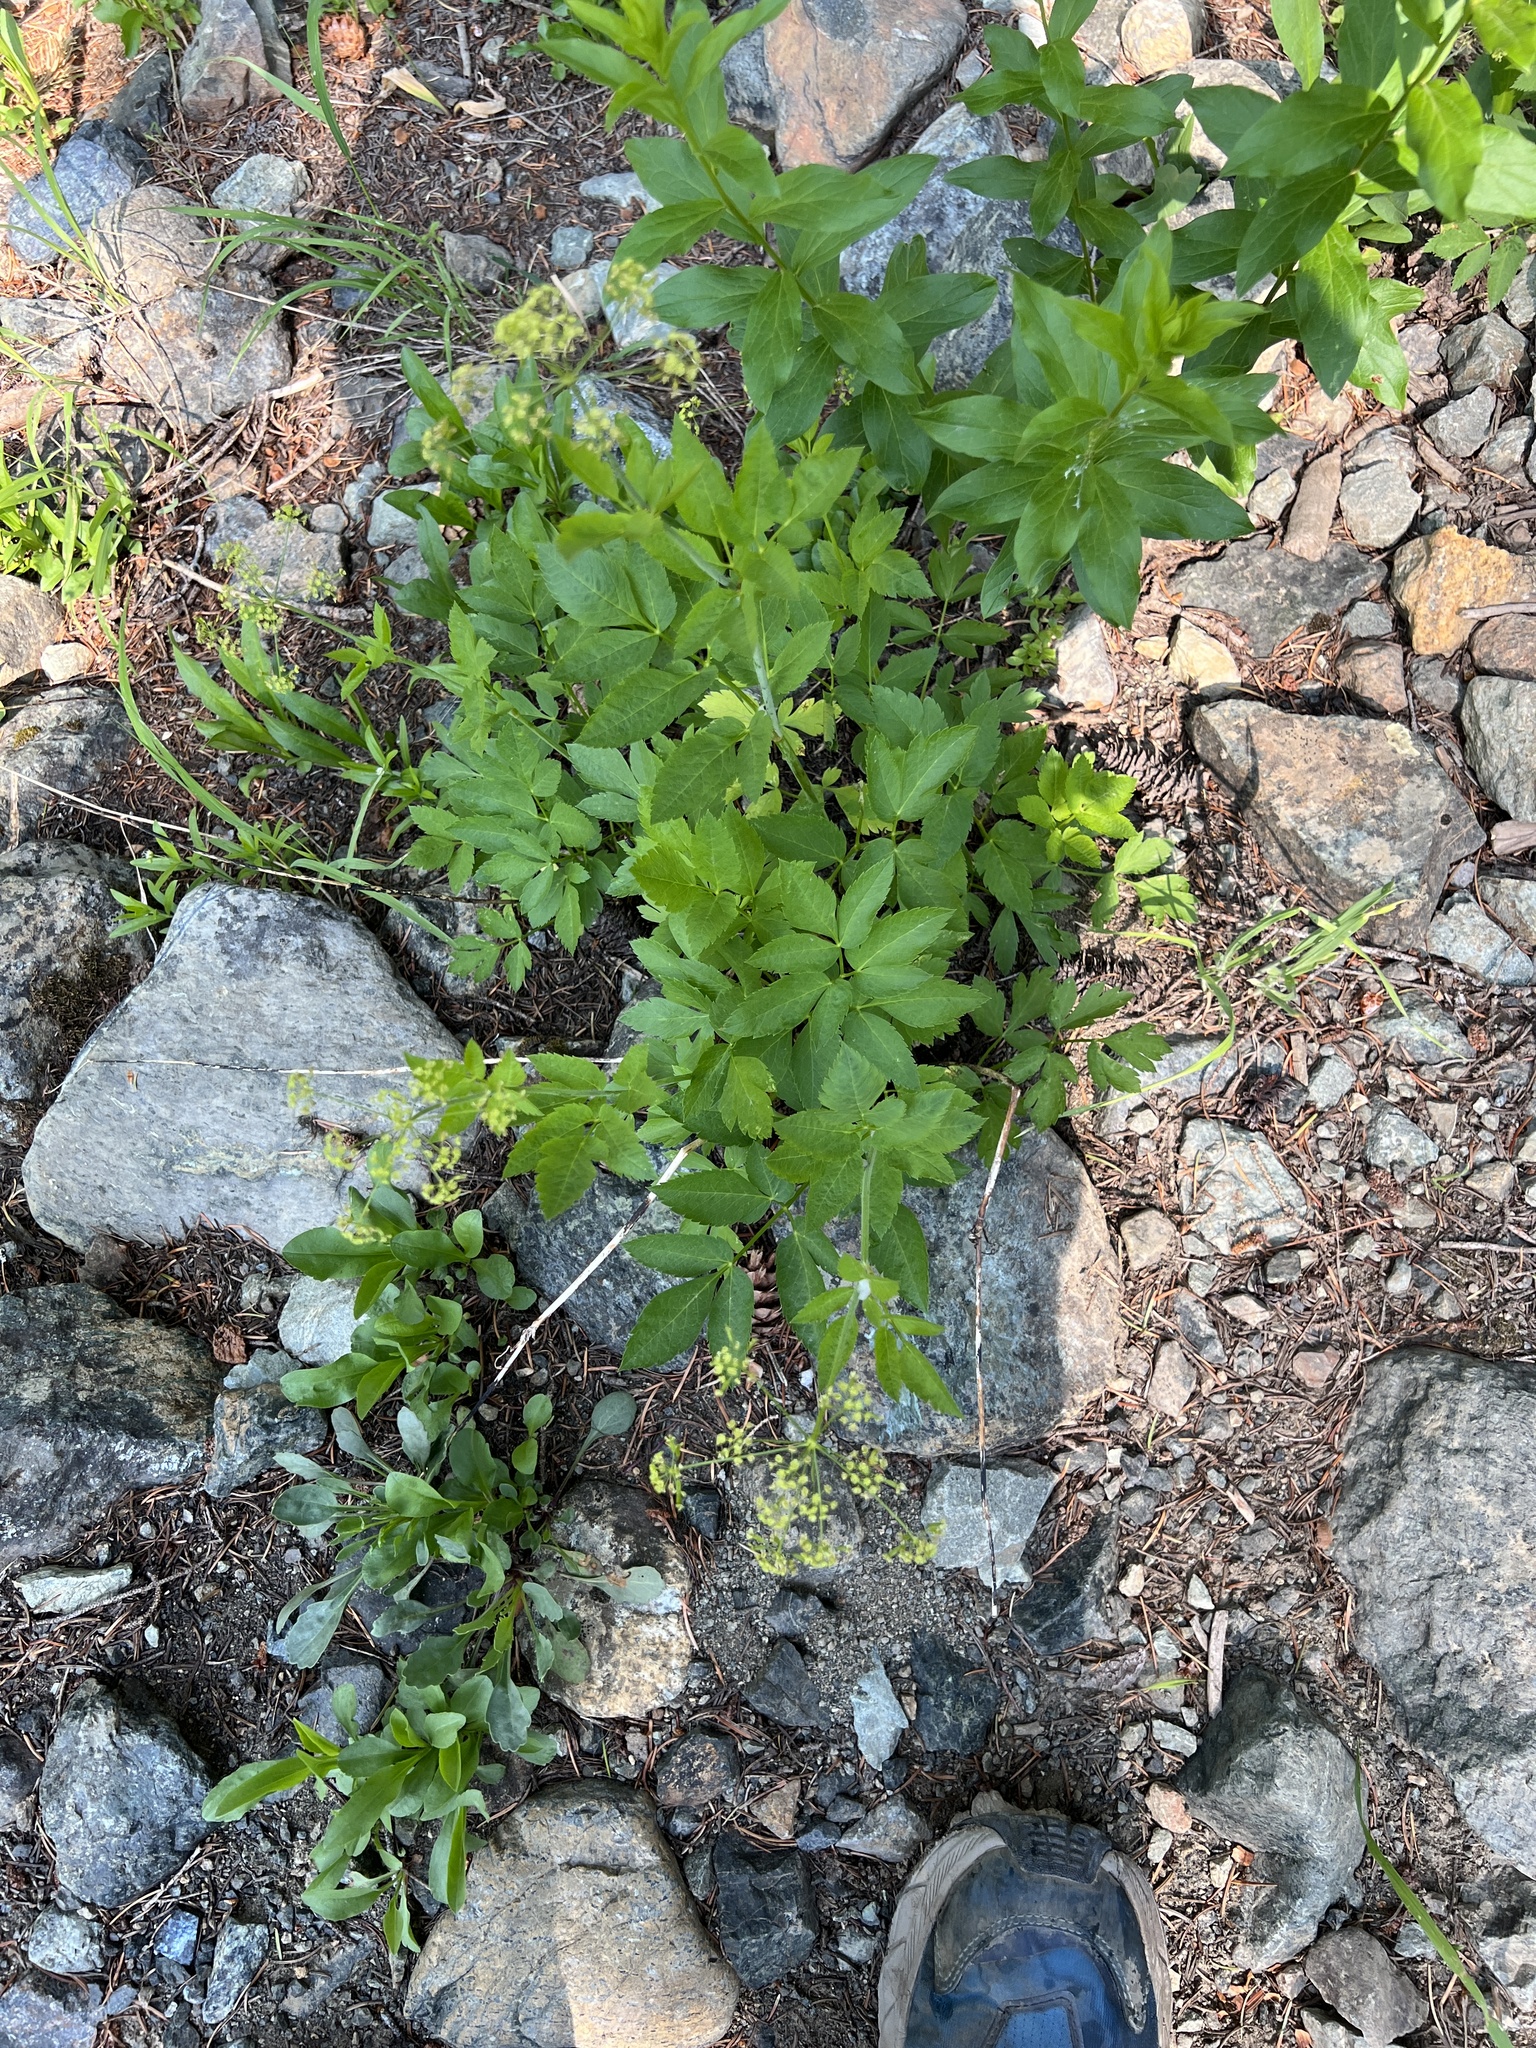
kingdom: Plantae
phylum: Tracheophyta
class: Magnoliopsida
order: Apiales
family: Apiaceae
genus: Osmorhiza
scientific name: Osmorhiza occidentalis
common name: Western sweet cicely
